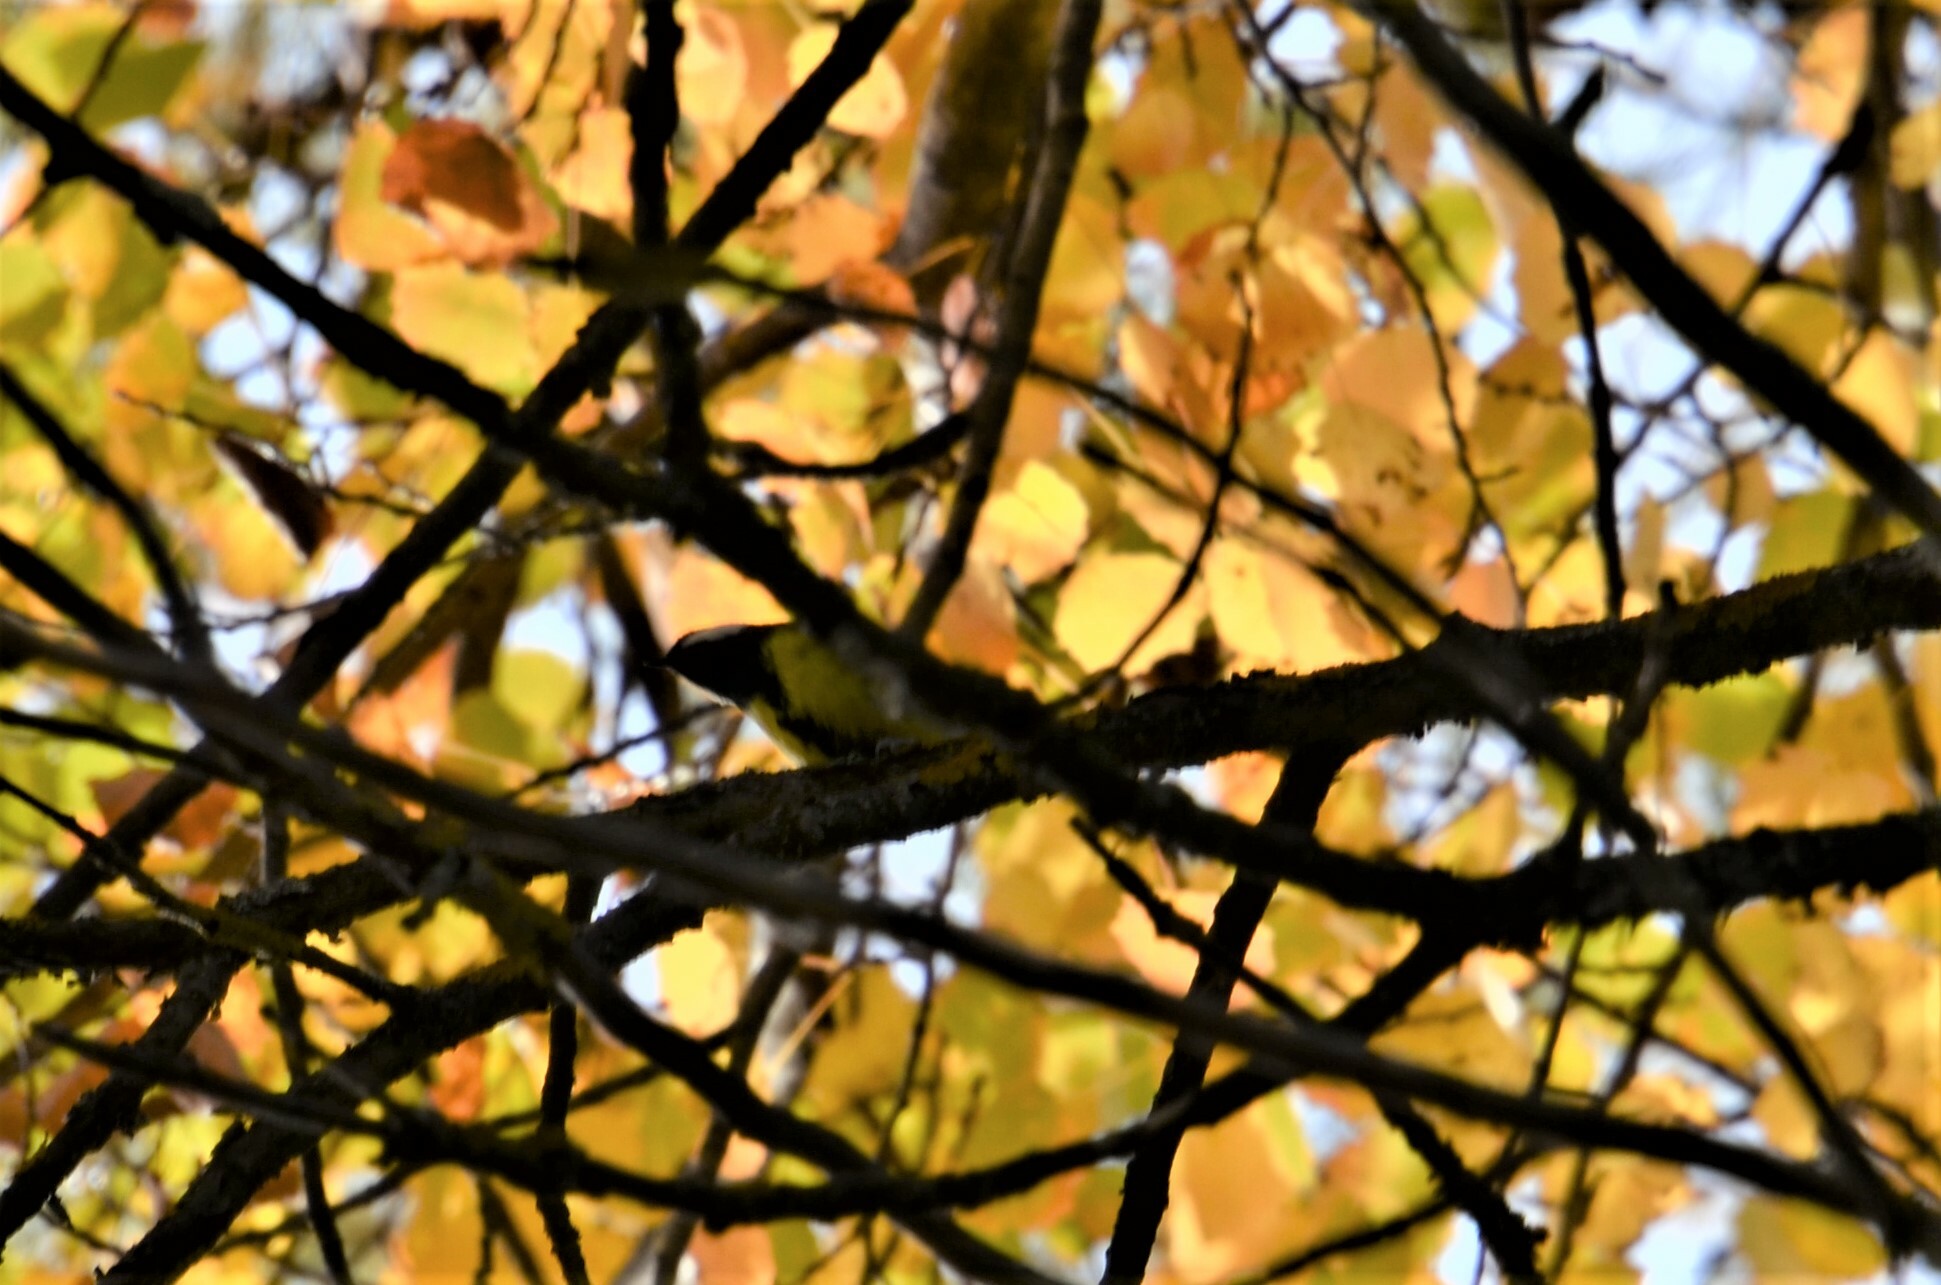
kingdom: Animalia
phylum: Chordata
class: Aves
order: Passeriformes
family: Paridae
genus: Parus
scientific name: Parus major
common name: Great tit
